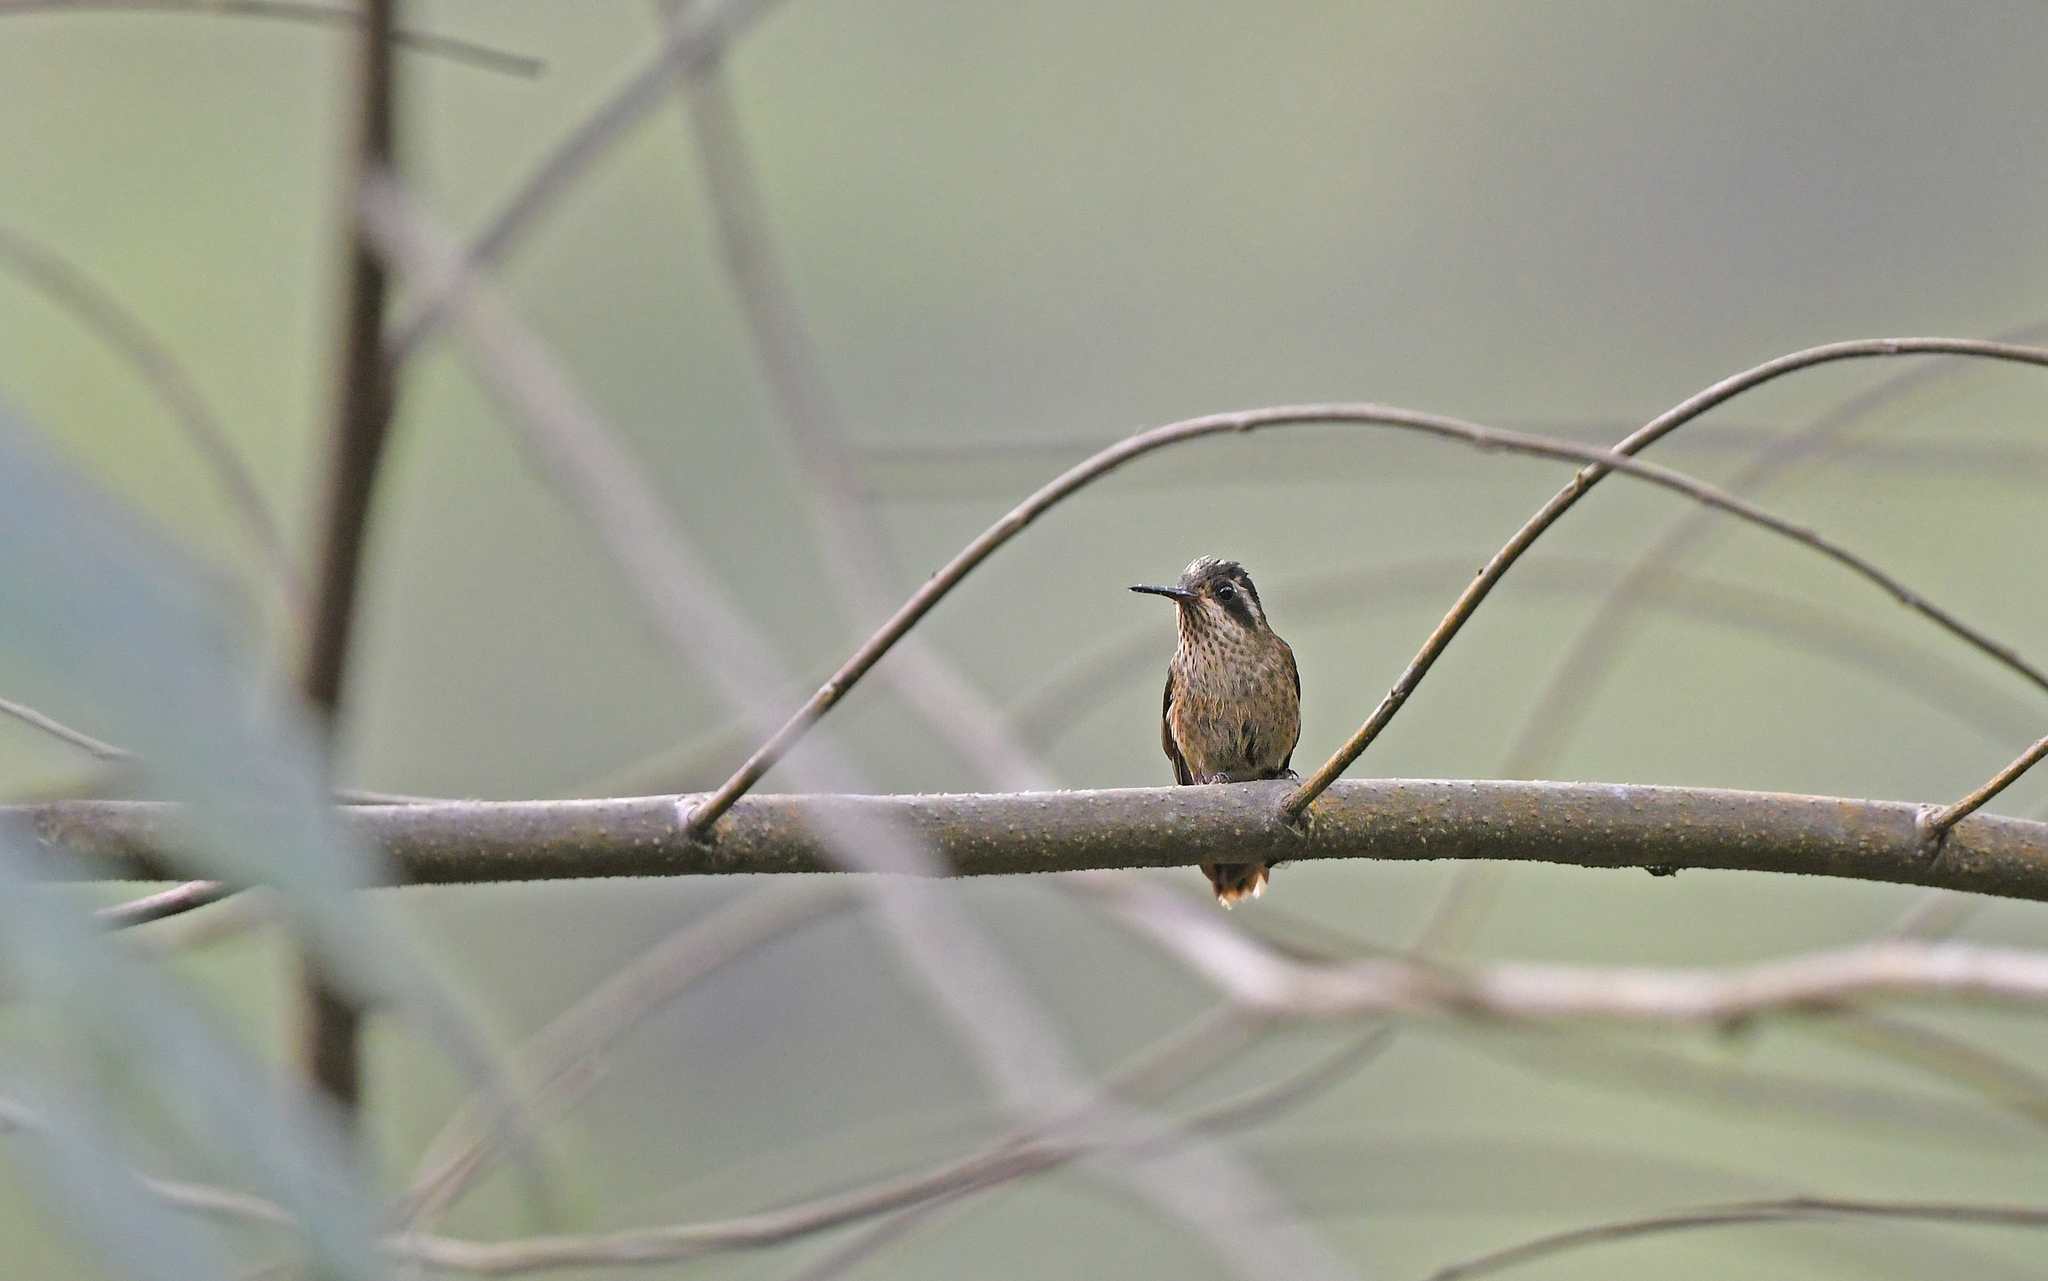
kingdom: Animalia
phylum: Chordata
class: Aves
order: Apodiformes
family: Trochilidae
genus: Adelomyia
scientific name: Adelomyia melanogenys
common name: Speckled hummingbird
